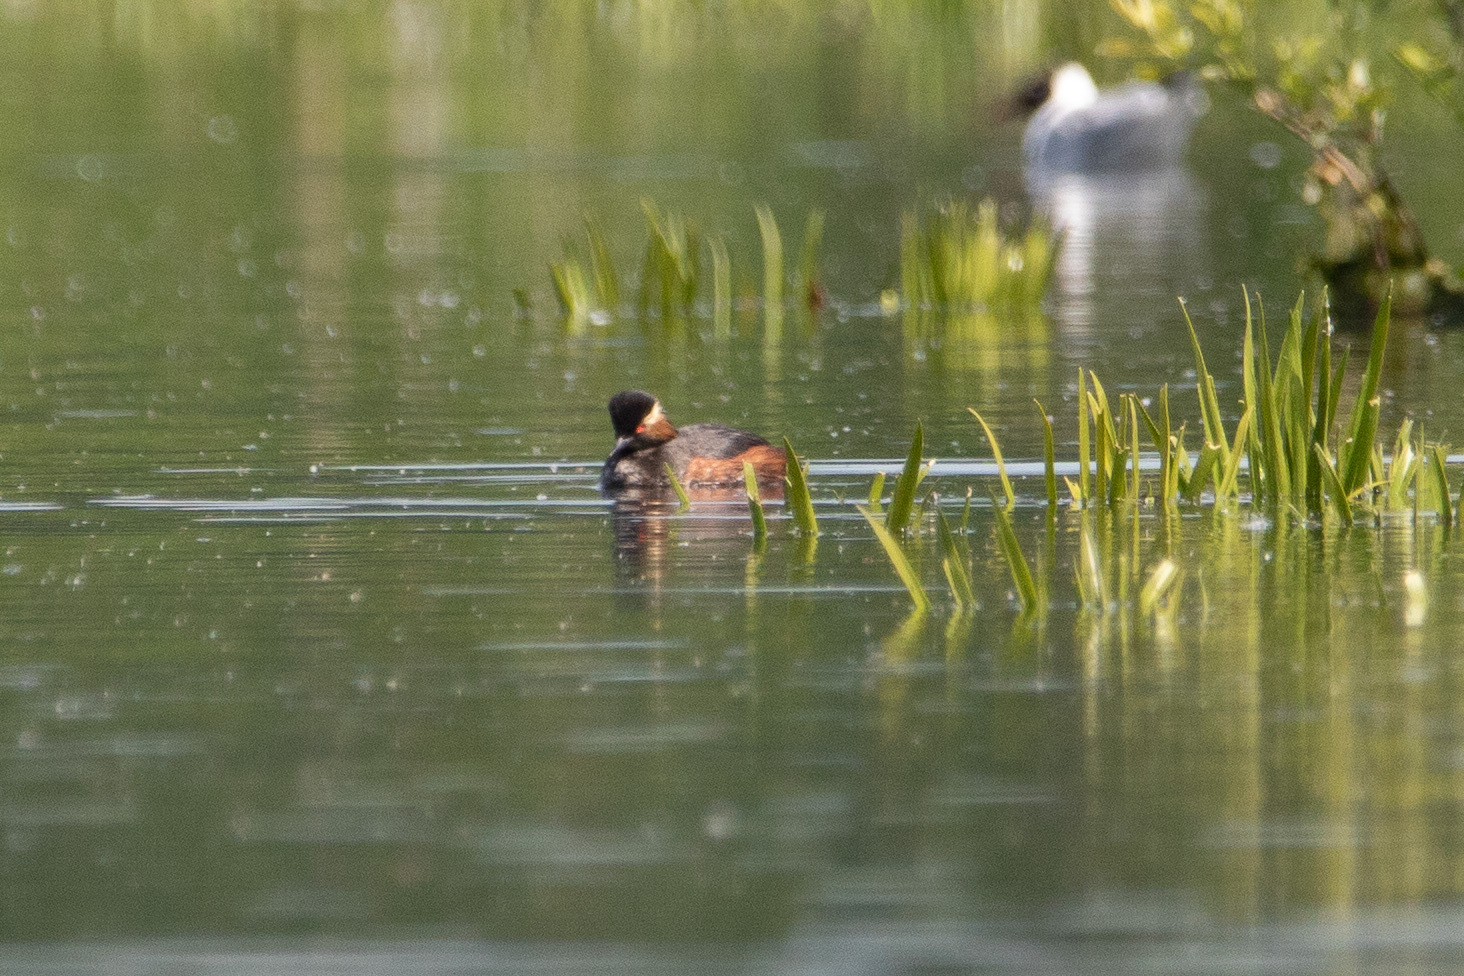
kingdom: Animalia
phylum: Chordata
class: Aves
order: Podicipediformes
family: Podicipedidae
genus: Podiceps
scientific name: Podiceps nigricollis
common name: Black-necked grebe
